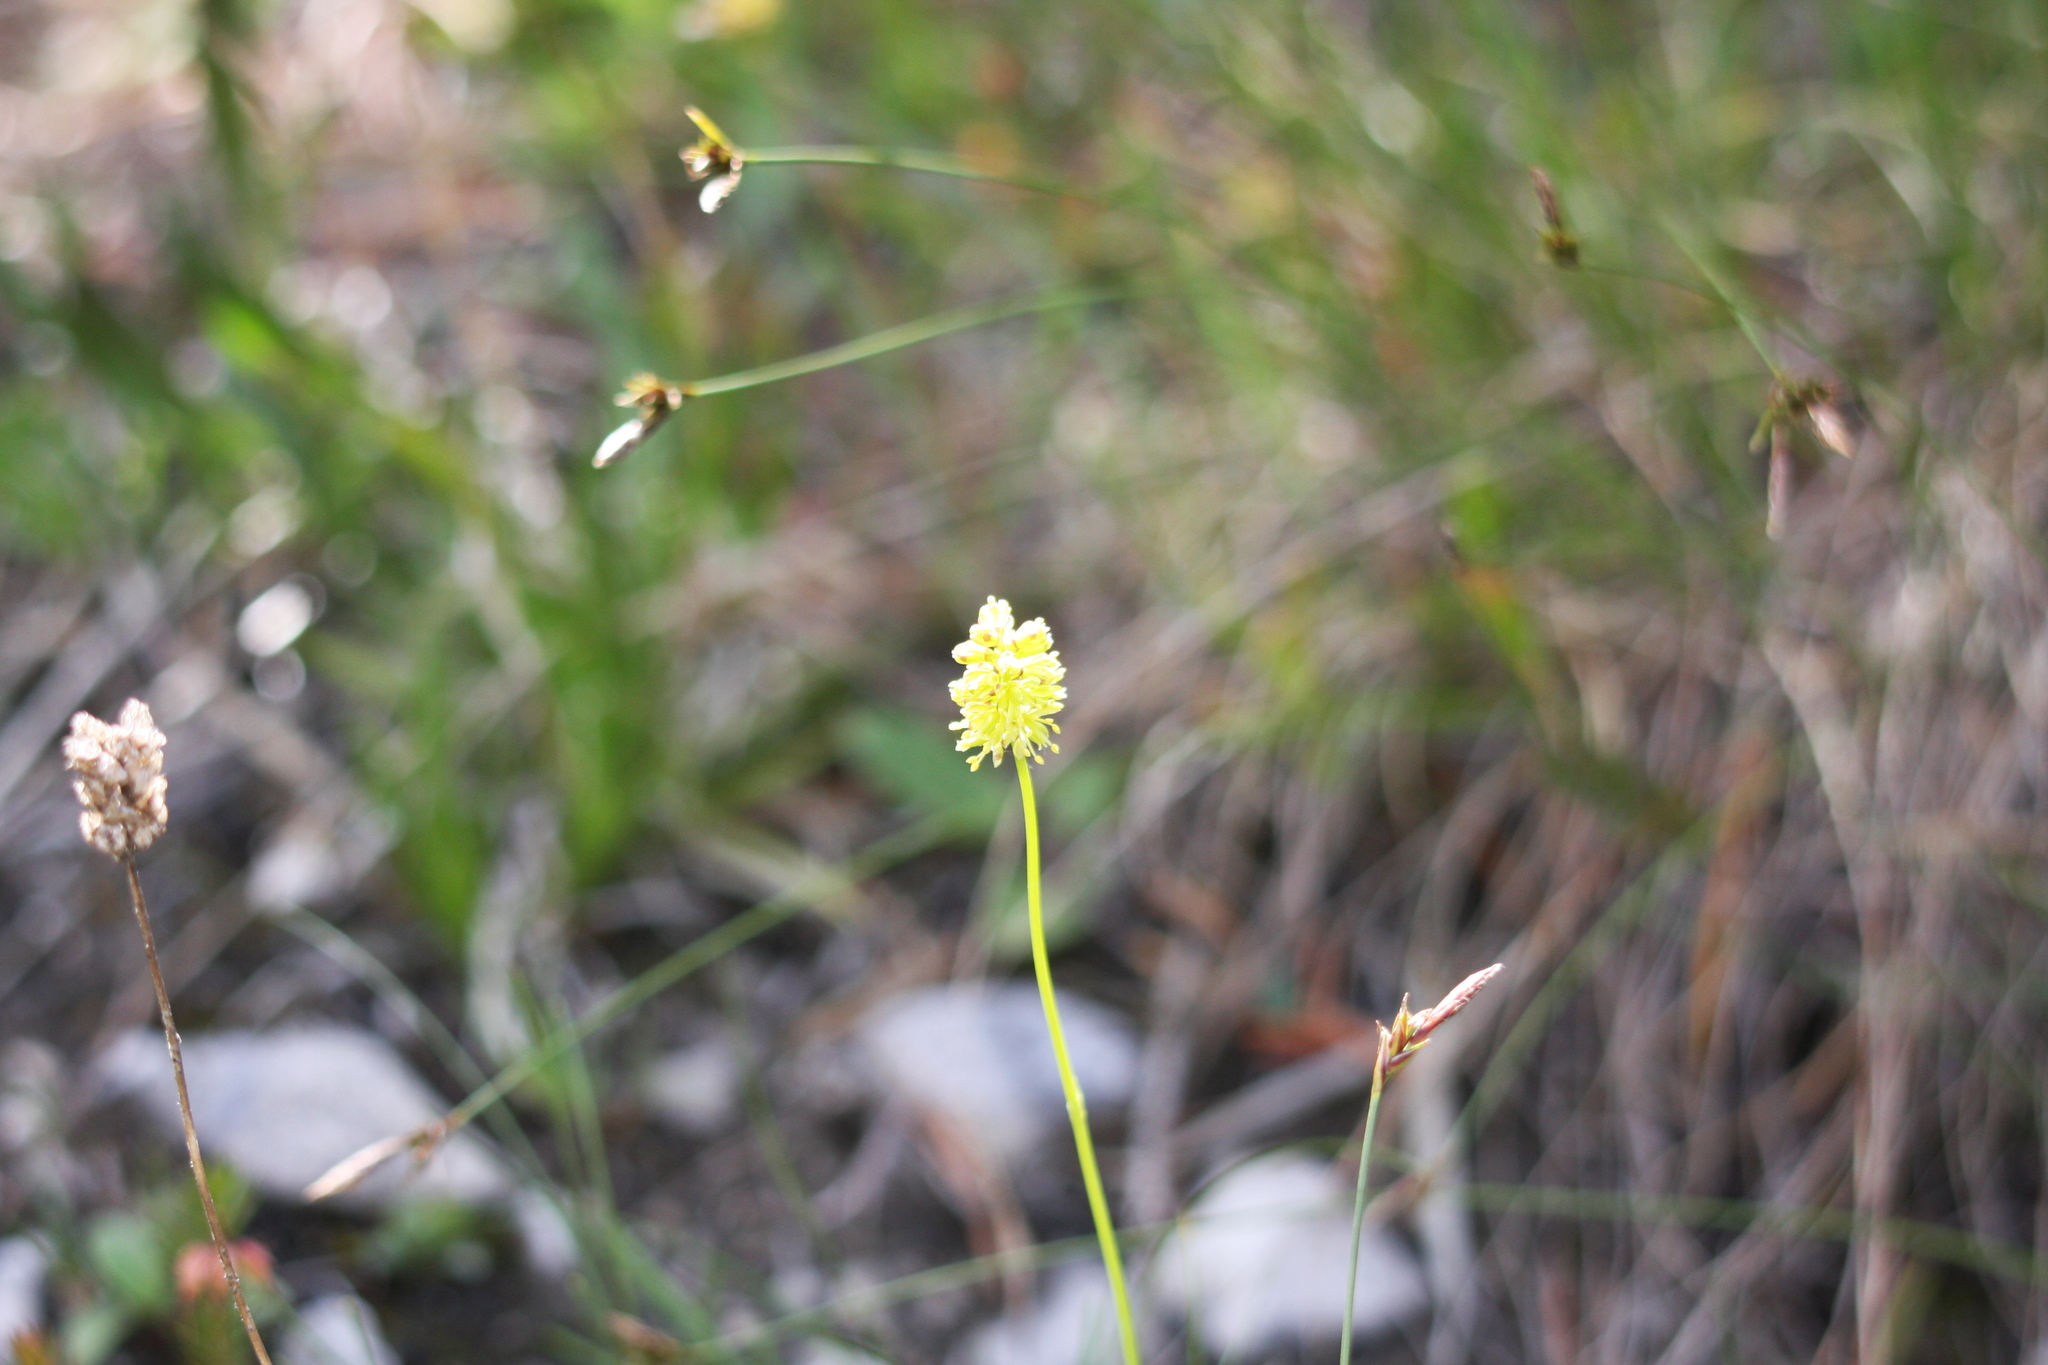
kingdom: Plantae
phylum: Tracheophyta
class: Liliopsida
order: Alismatales
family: Tofieldiaceae
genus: Tofieldia
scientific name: Tofieldia pusilla
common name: Scottish false asphodel
